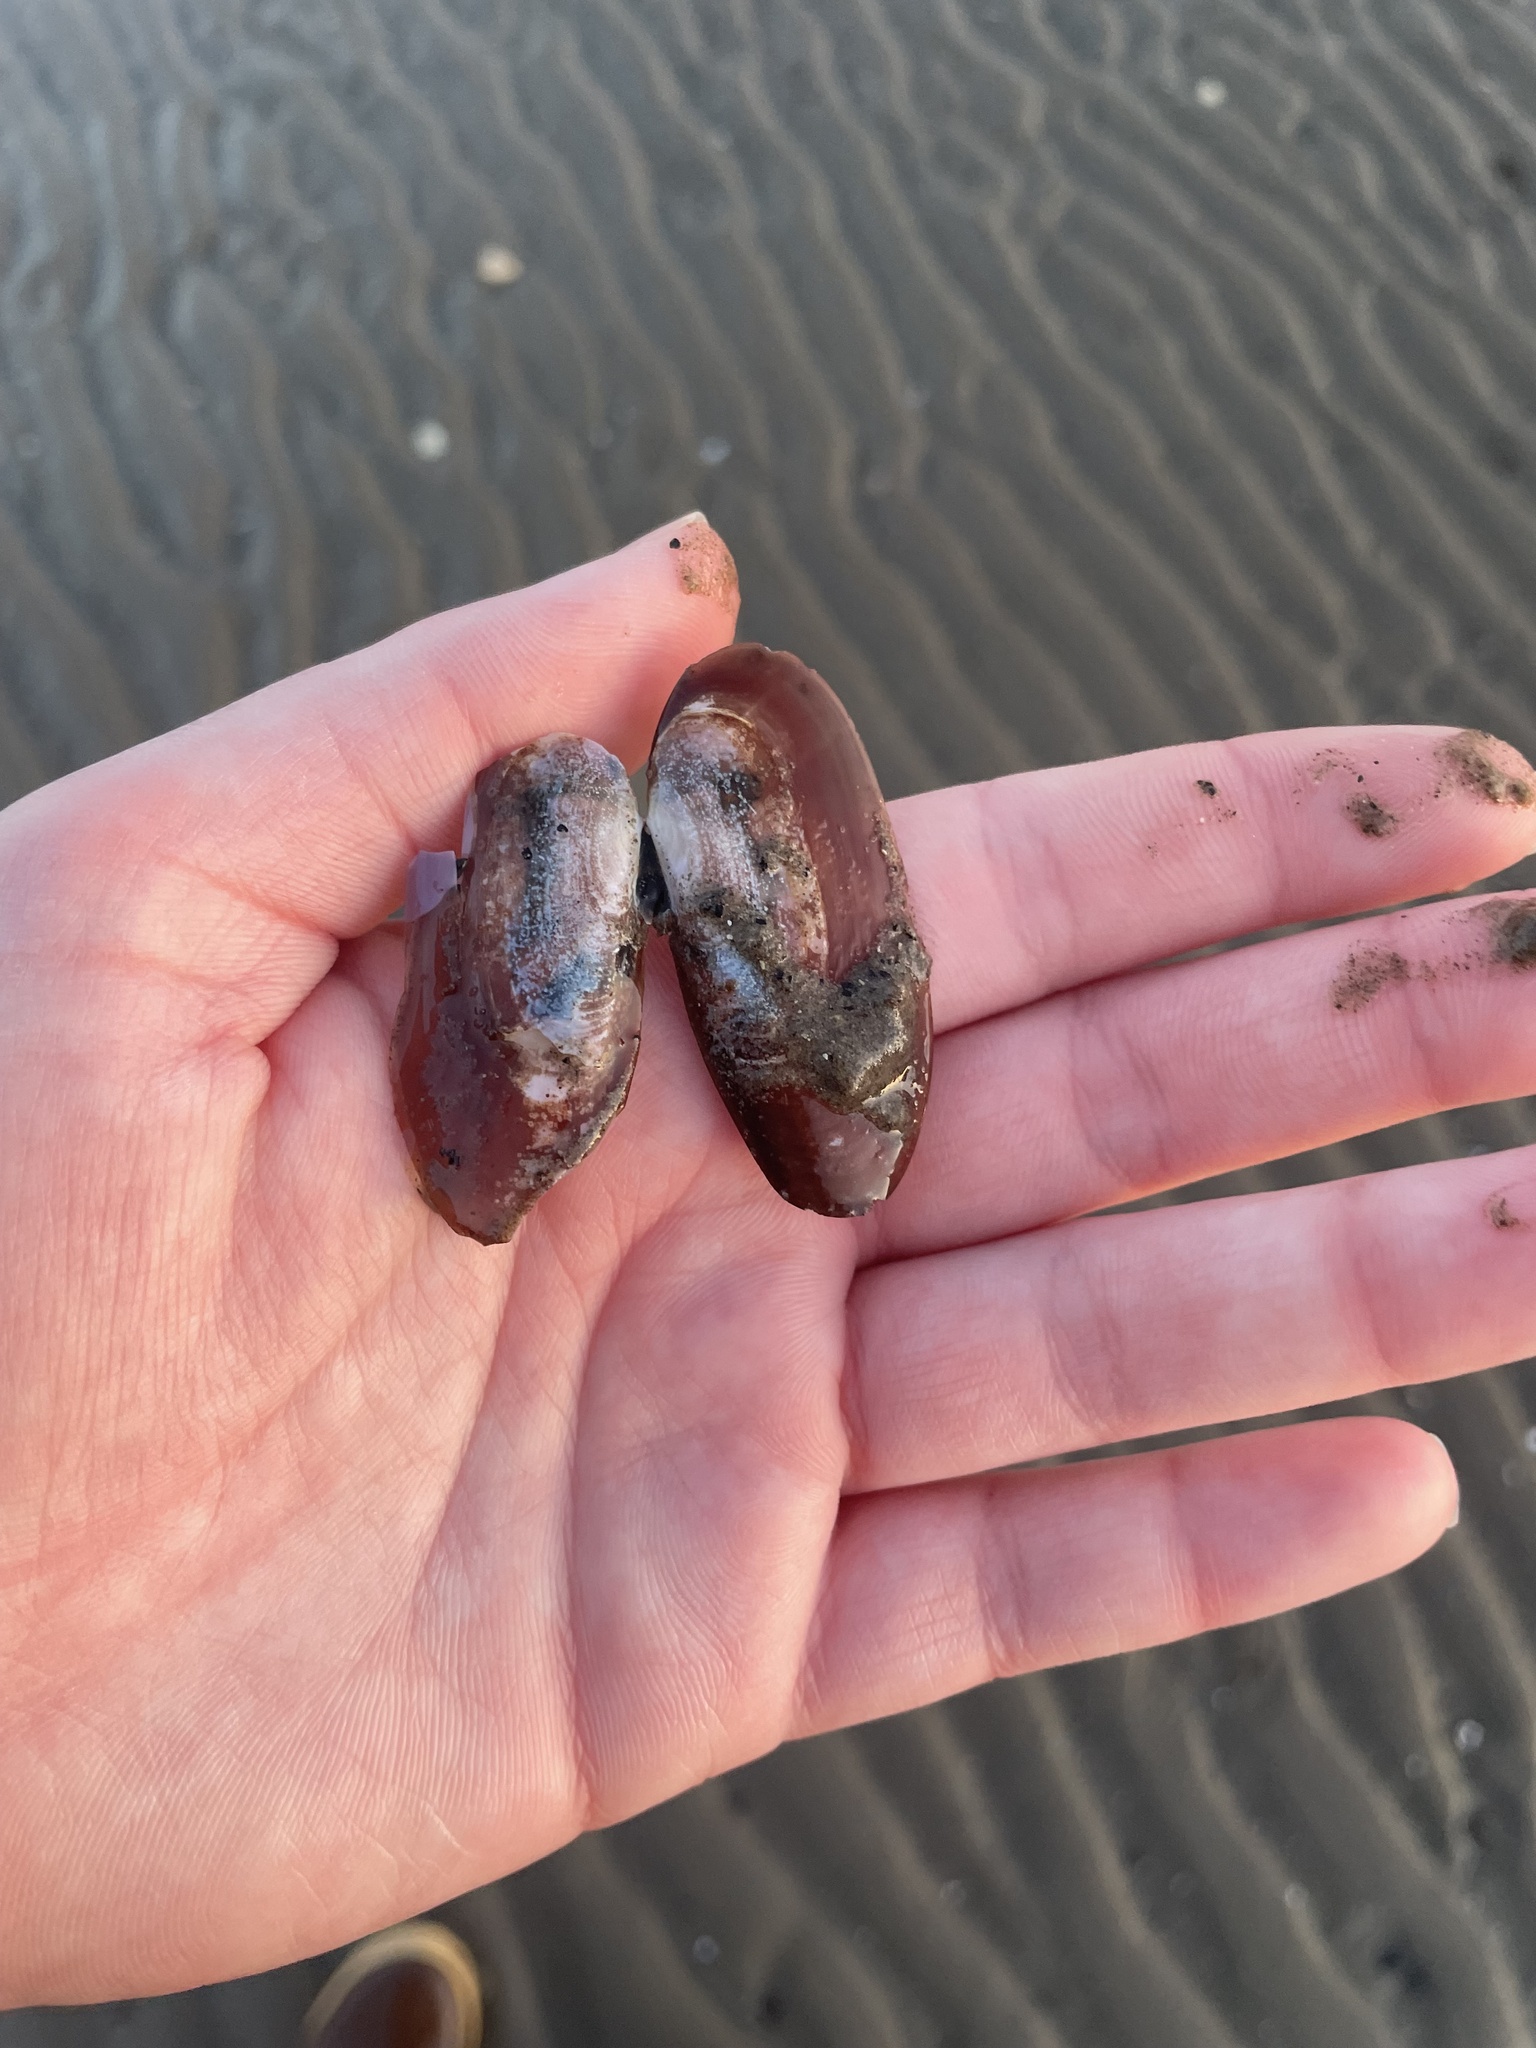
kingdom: Animalia
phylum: Mollusca
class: Bivalvia
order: Adapedonta
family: Pharidae
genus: Siliqua
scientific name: Siliqua costata
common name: Atlantic razor
